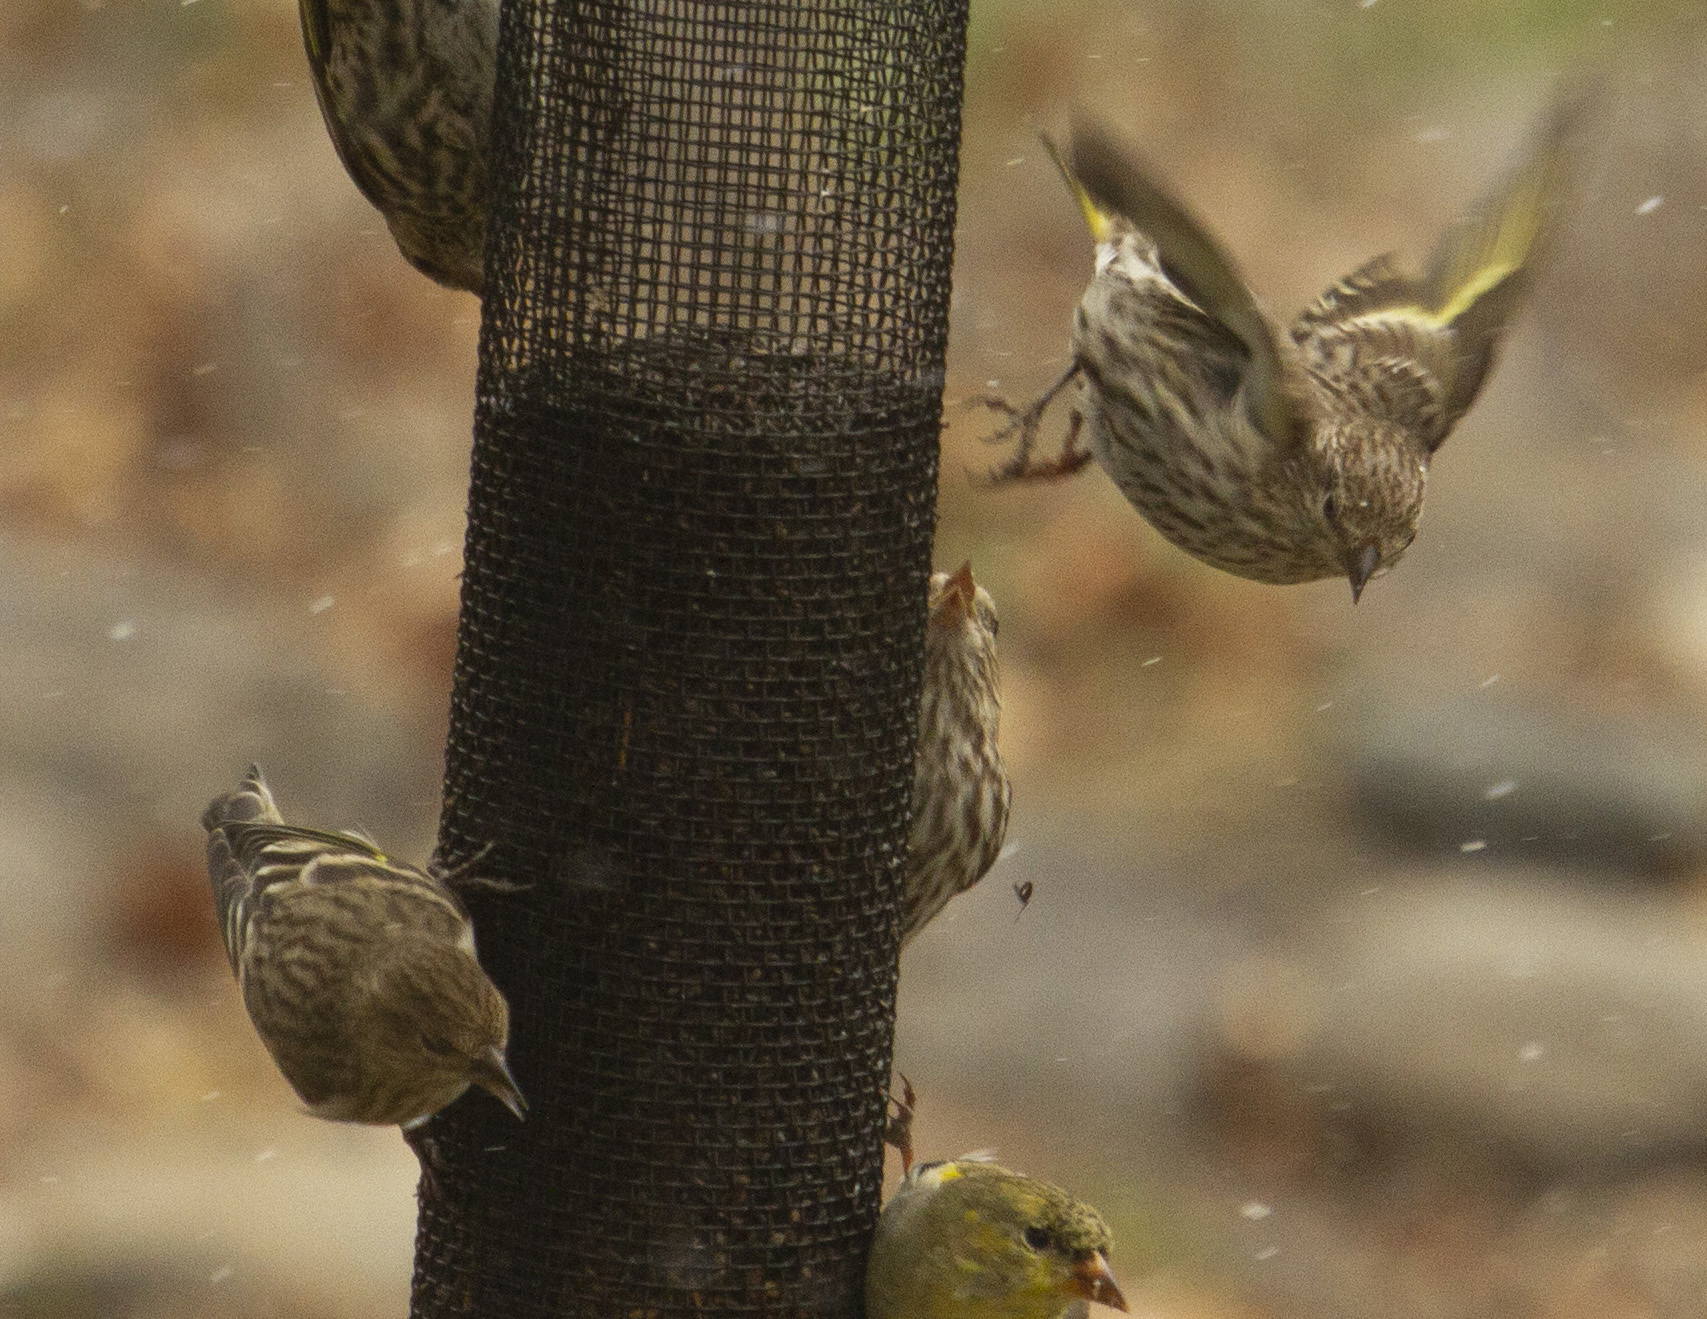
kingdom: Animalia
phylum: Chordata
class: Aves
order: Passeriformes
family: Fringillidae
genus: Spinus
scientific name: Spinus pinus
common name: Pine siskin
